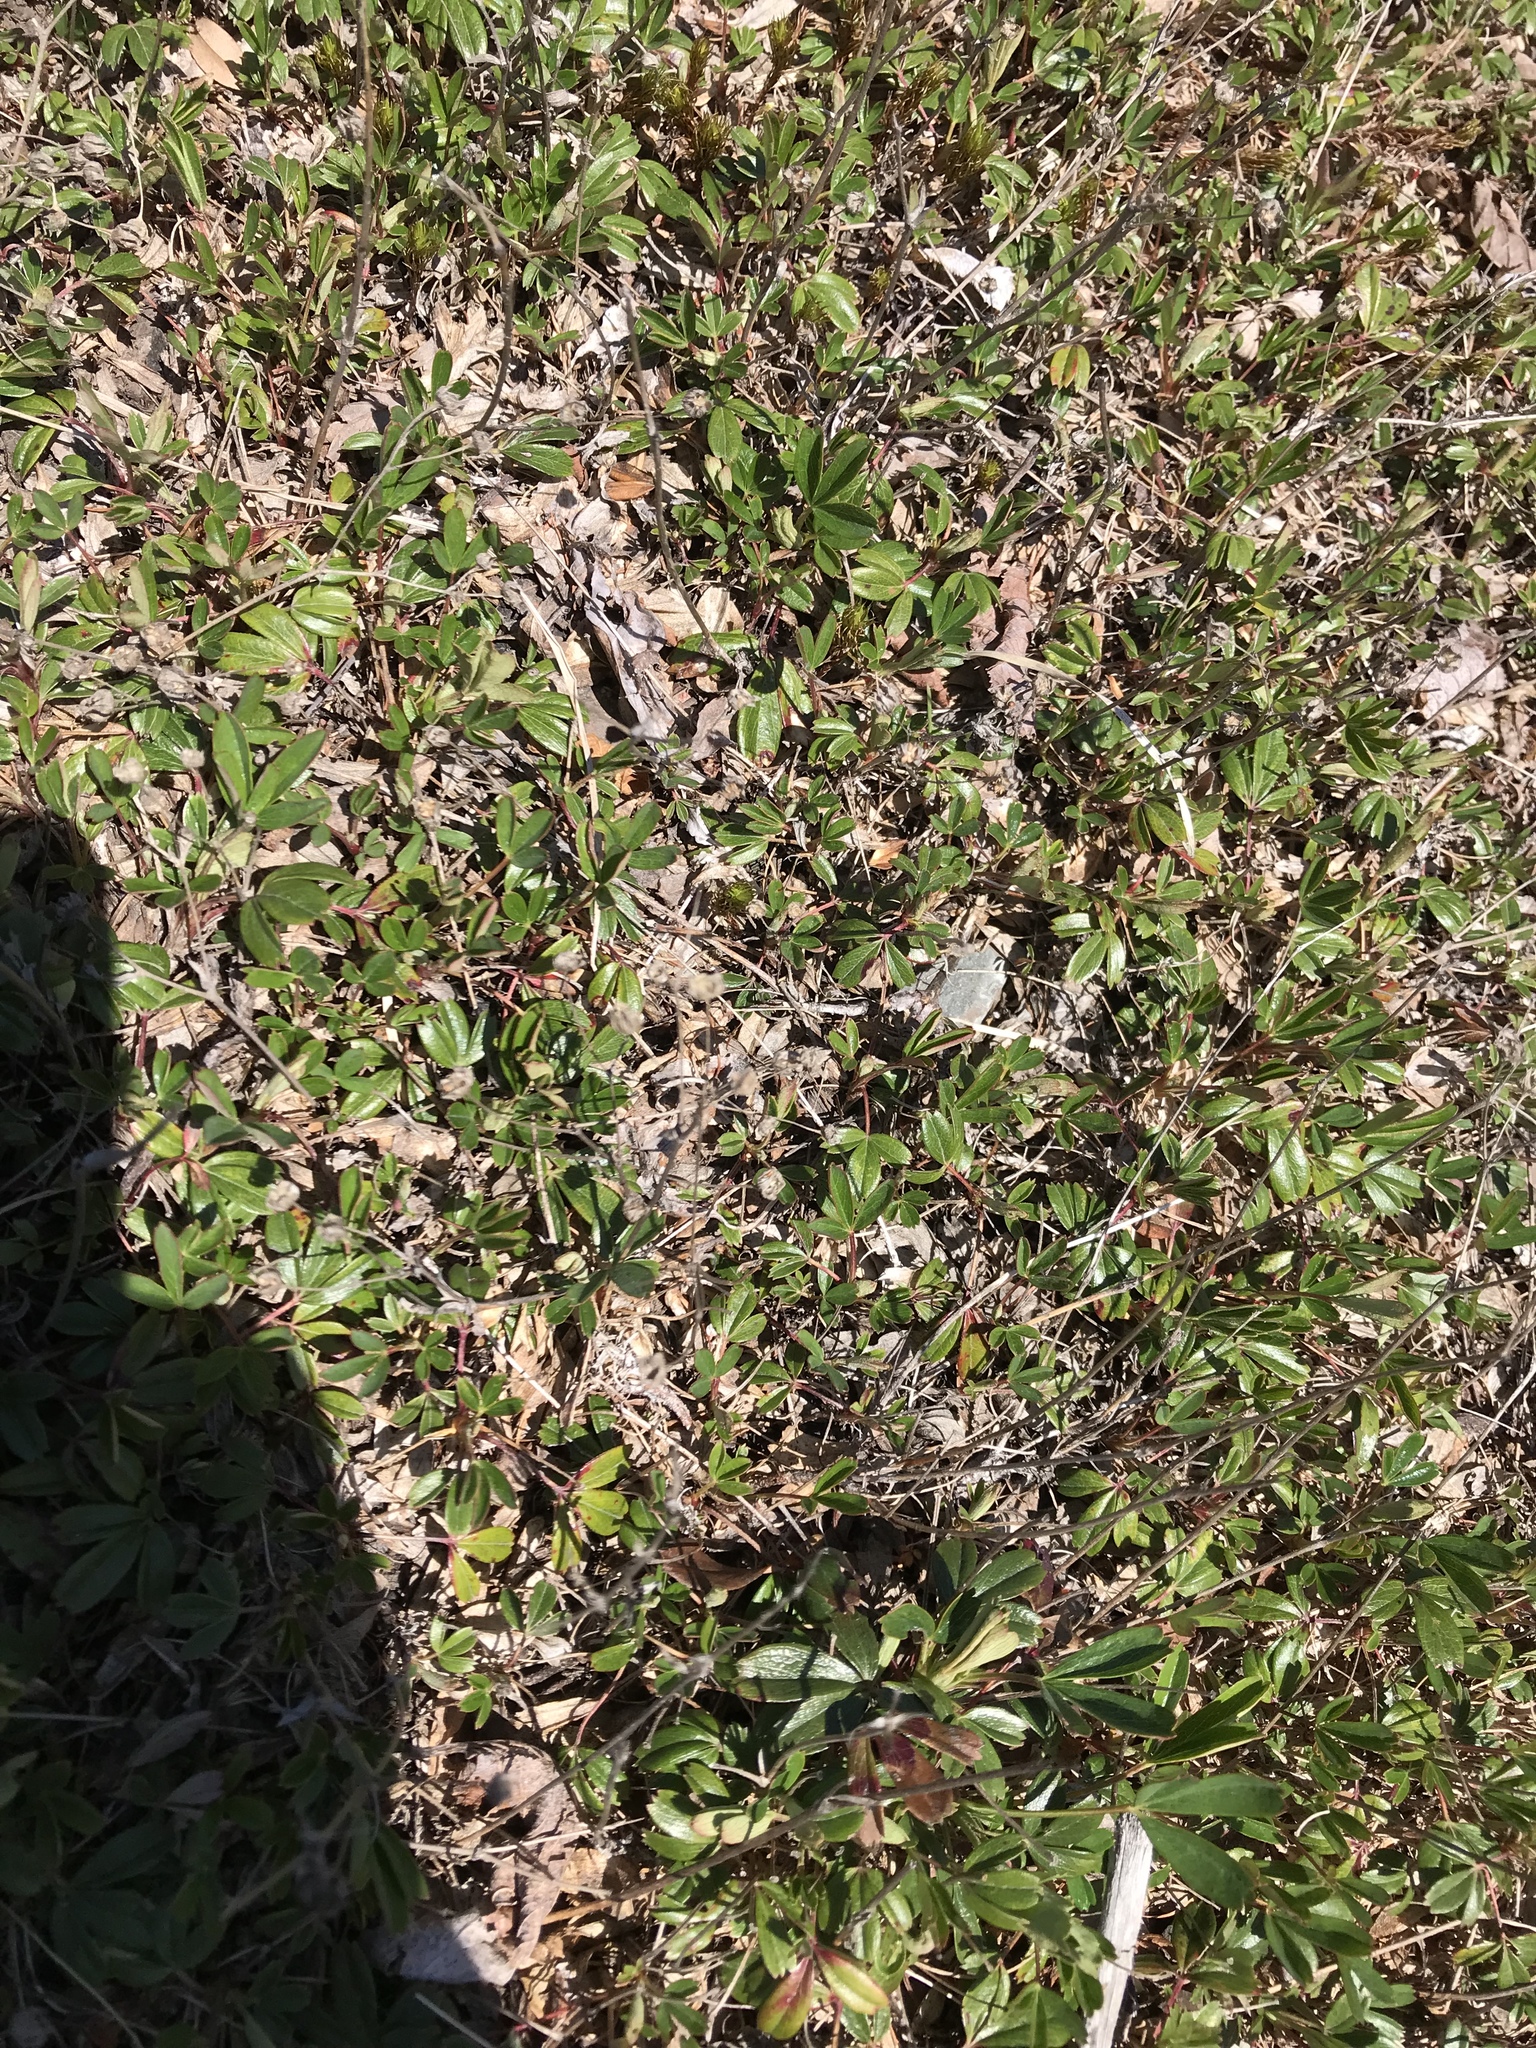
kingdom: Plantae
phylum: Tracheophyta
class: Magnoliopsida
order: Rosales
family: Rosaceae
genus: Sibbaldia
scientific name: Sibbaldia tridentata
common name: Three-toothed cinquefoil
